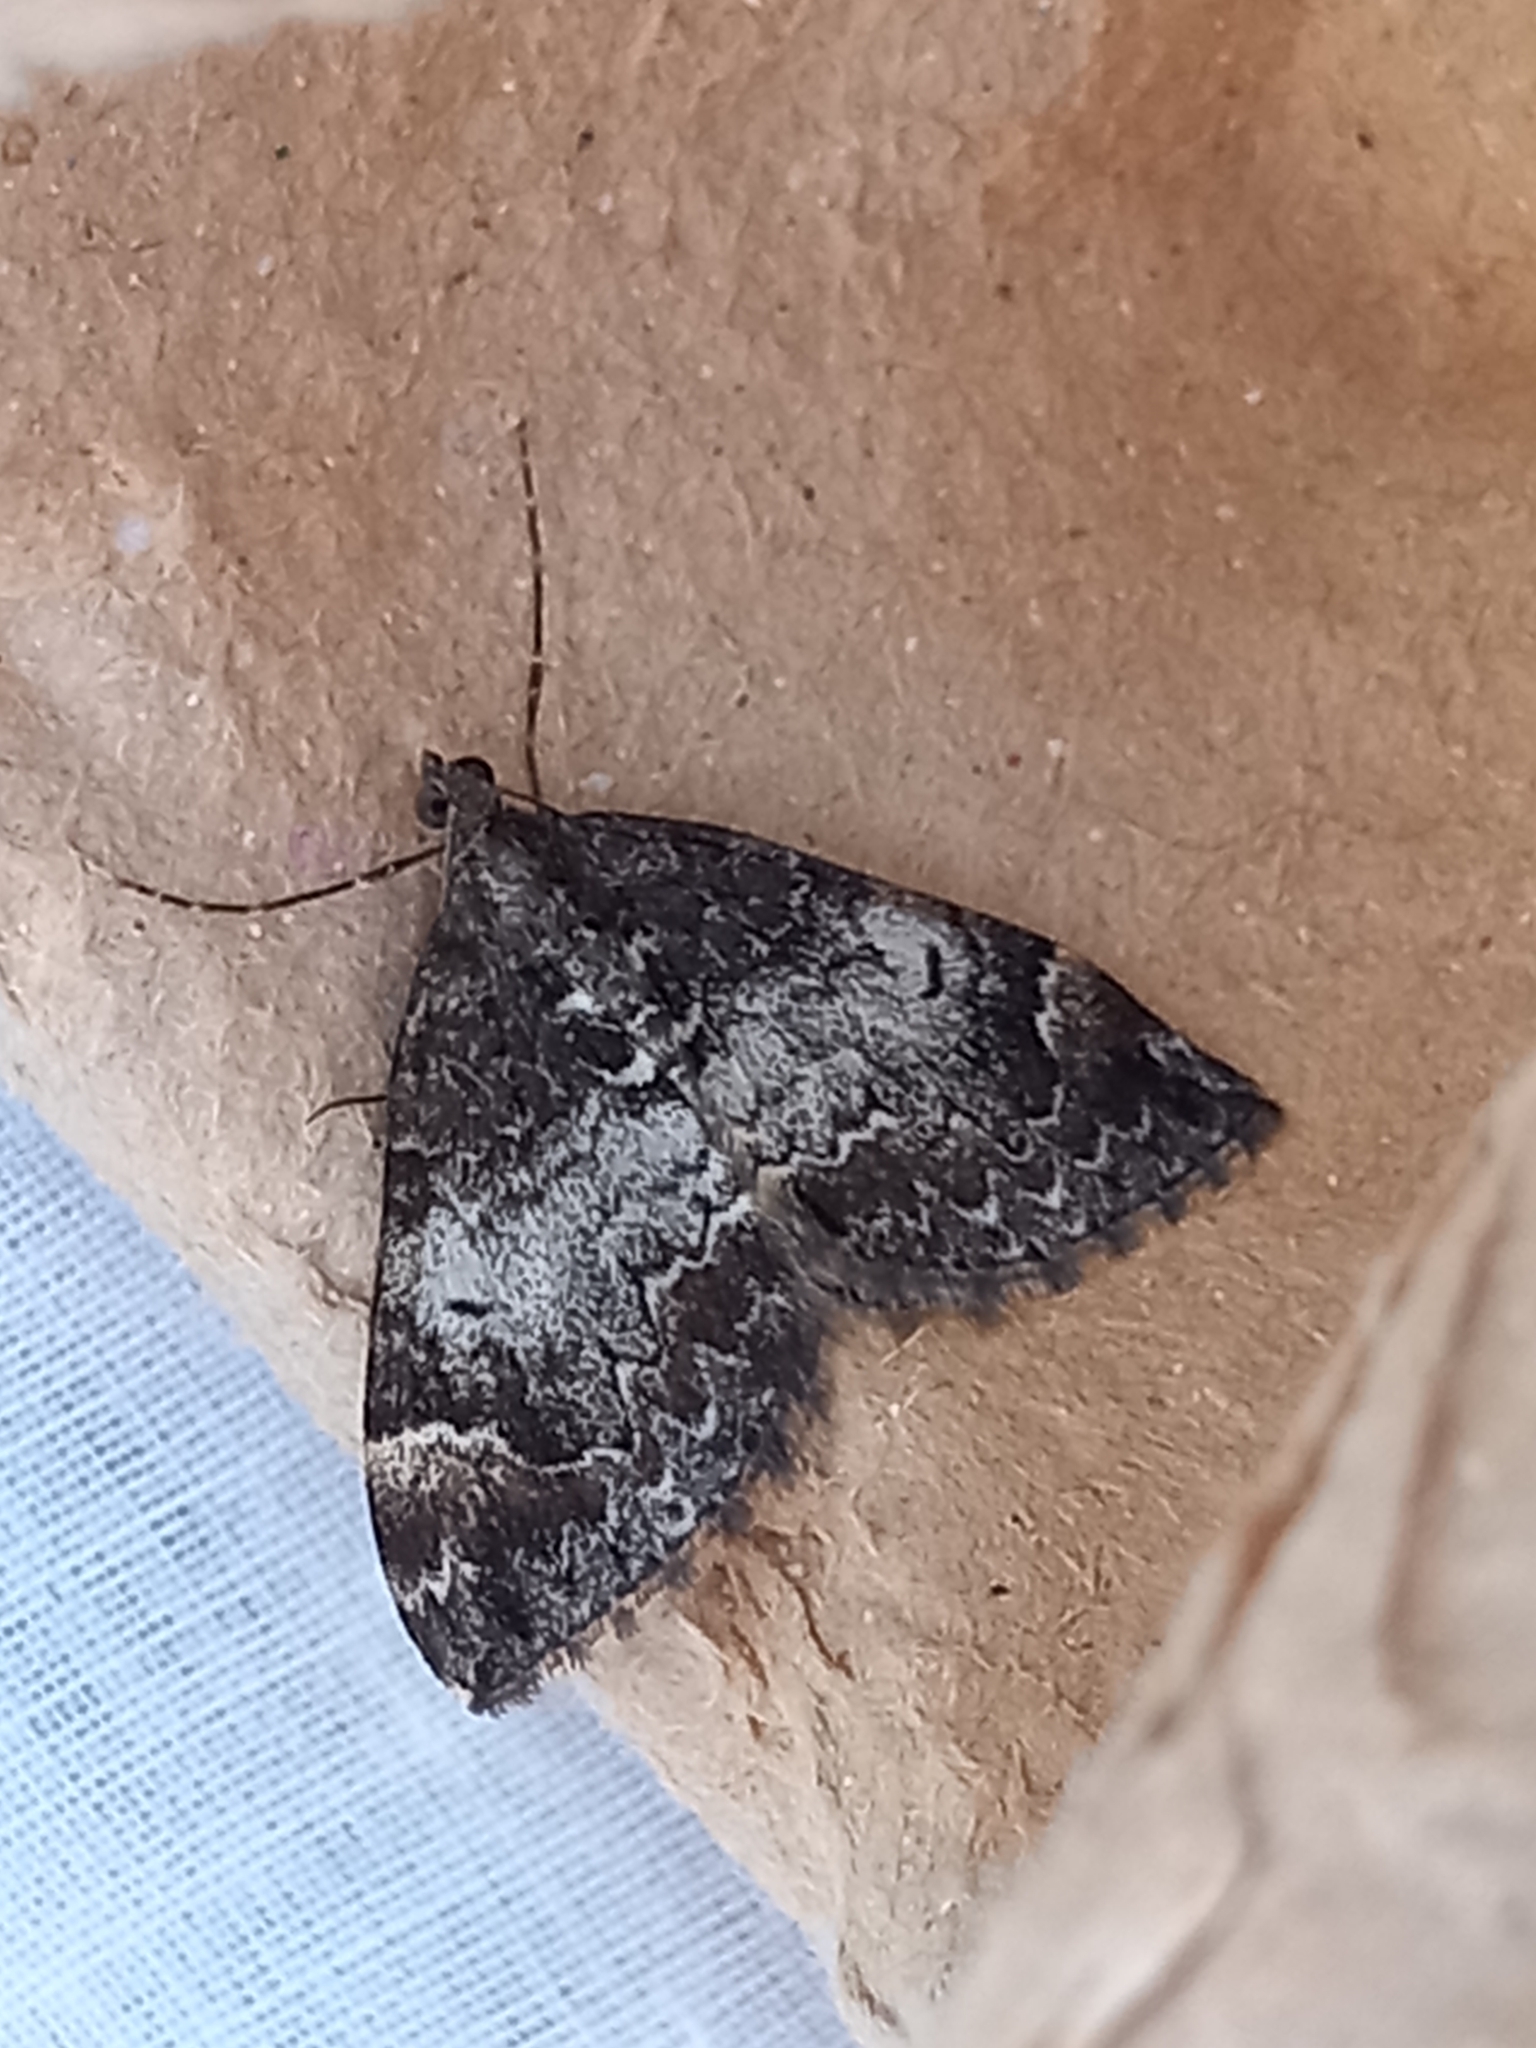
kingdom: Animalia
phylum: Arthropoda
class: Insecta
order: Lepidoptera
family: Geometridae
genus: Dysstroma
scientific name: Dysstroma truncata
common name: Common marbled carpet
